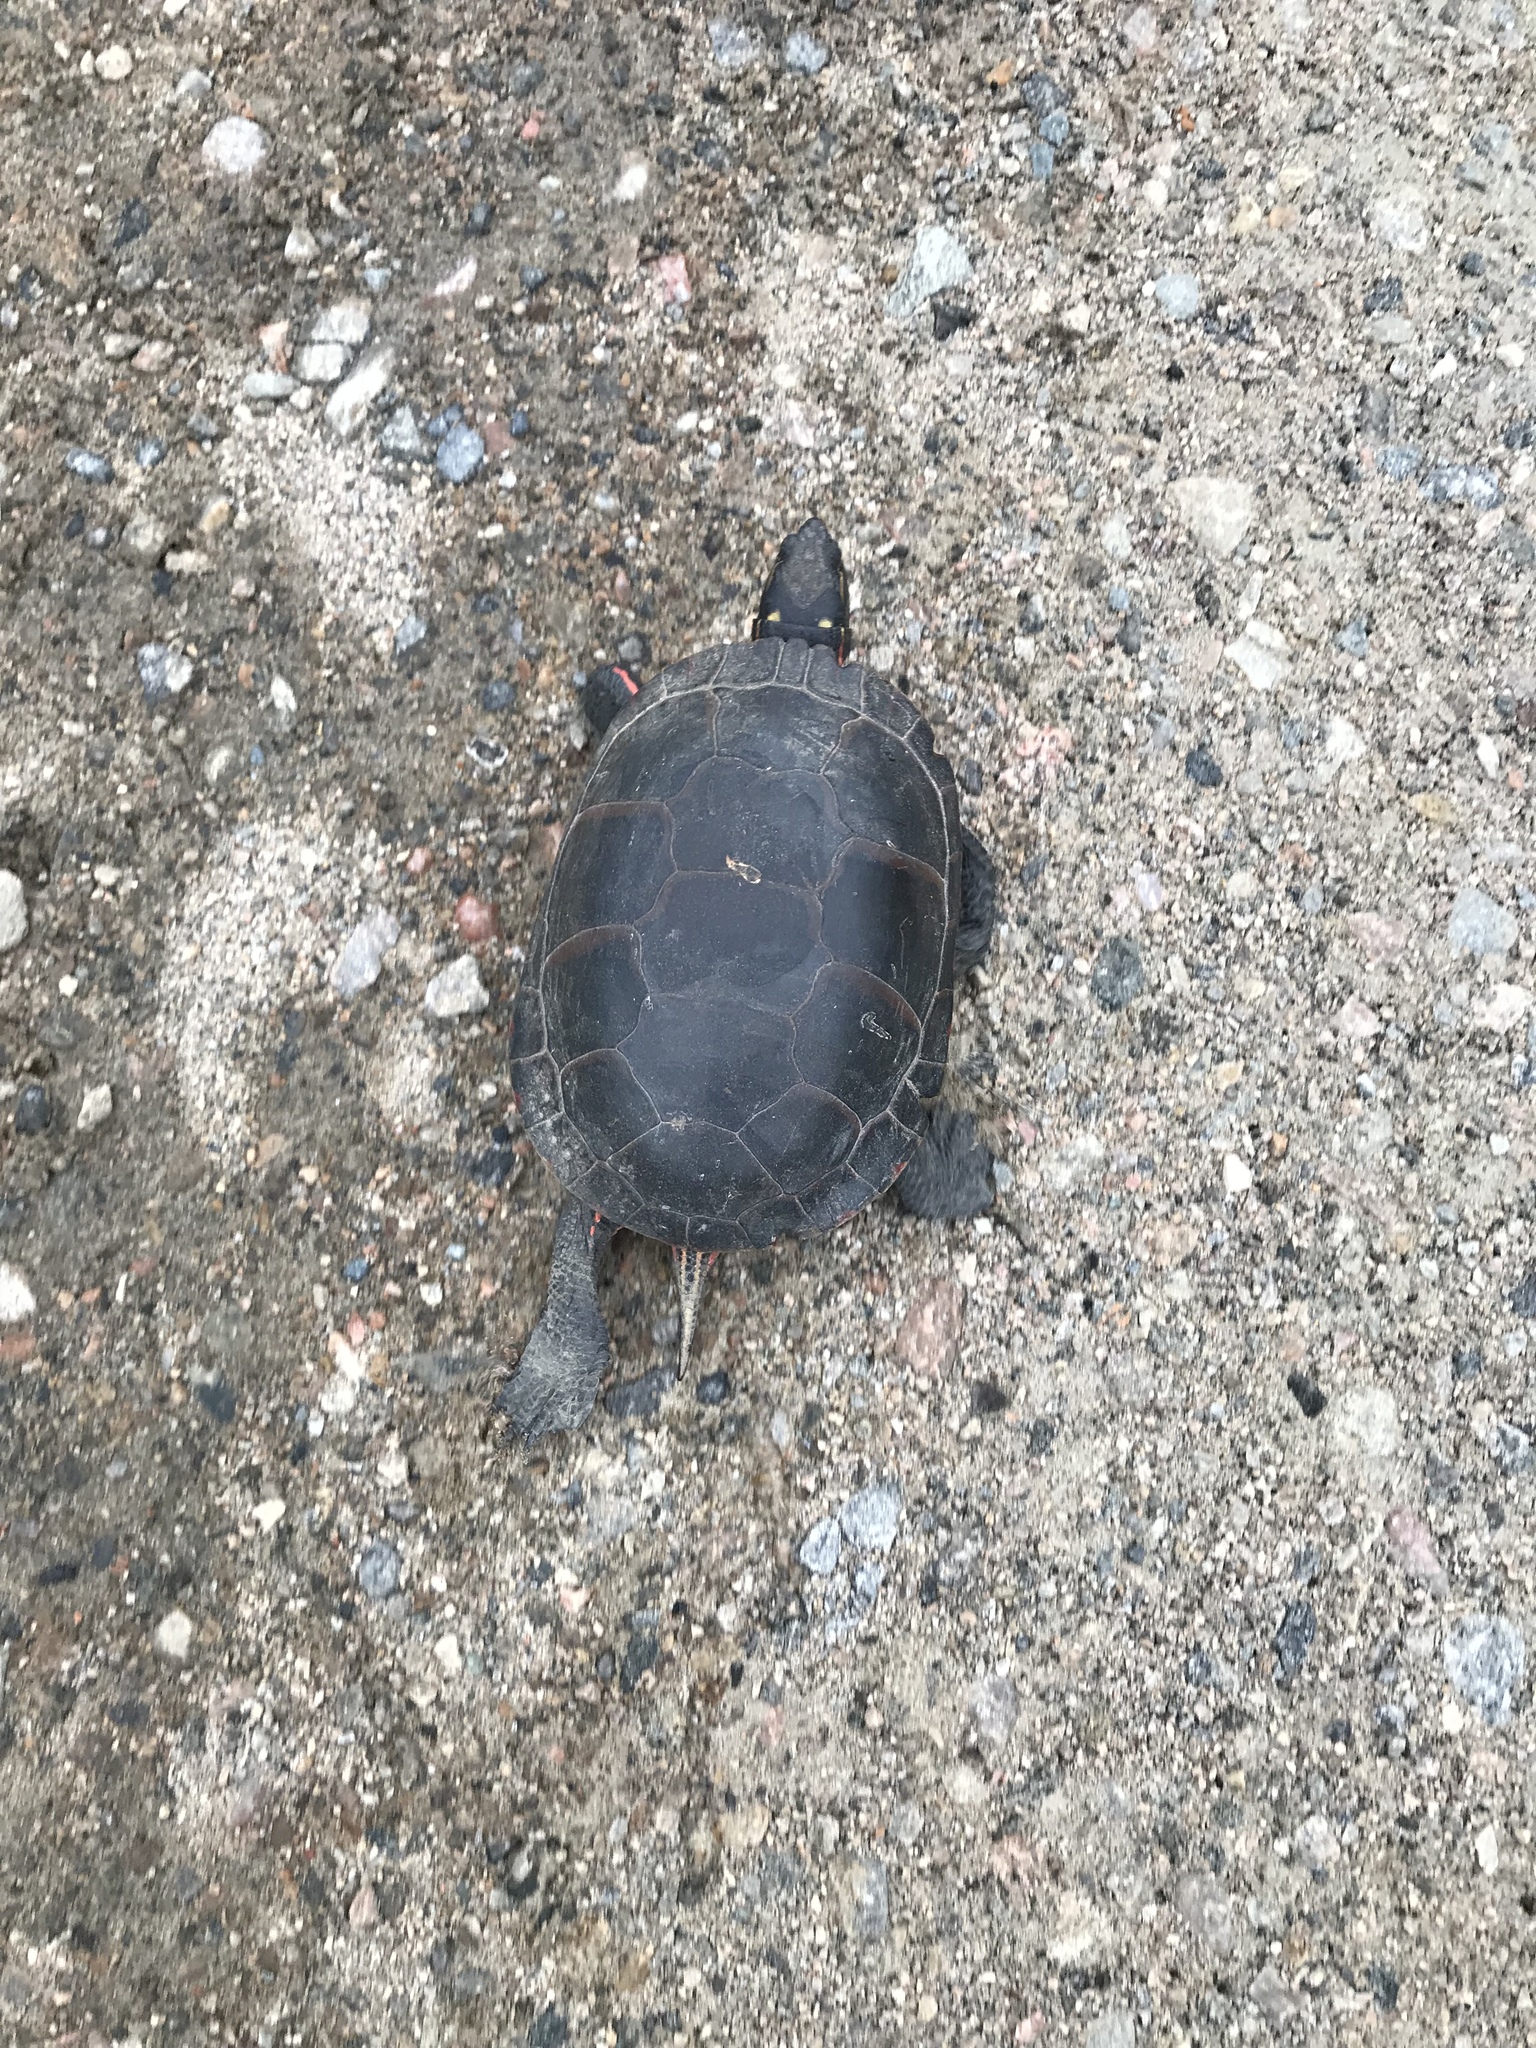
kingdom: Animalia
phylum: Chordata
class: Testudines
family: Emydidae
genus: Chrysemys
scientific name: Chrysemys picta
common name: Painted turtle
